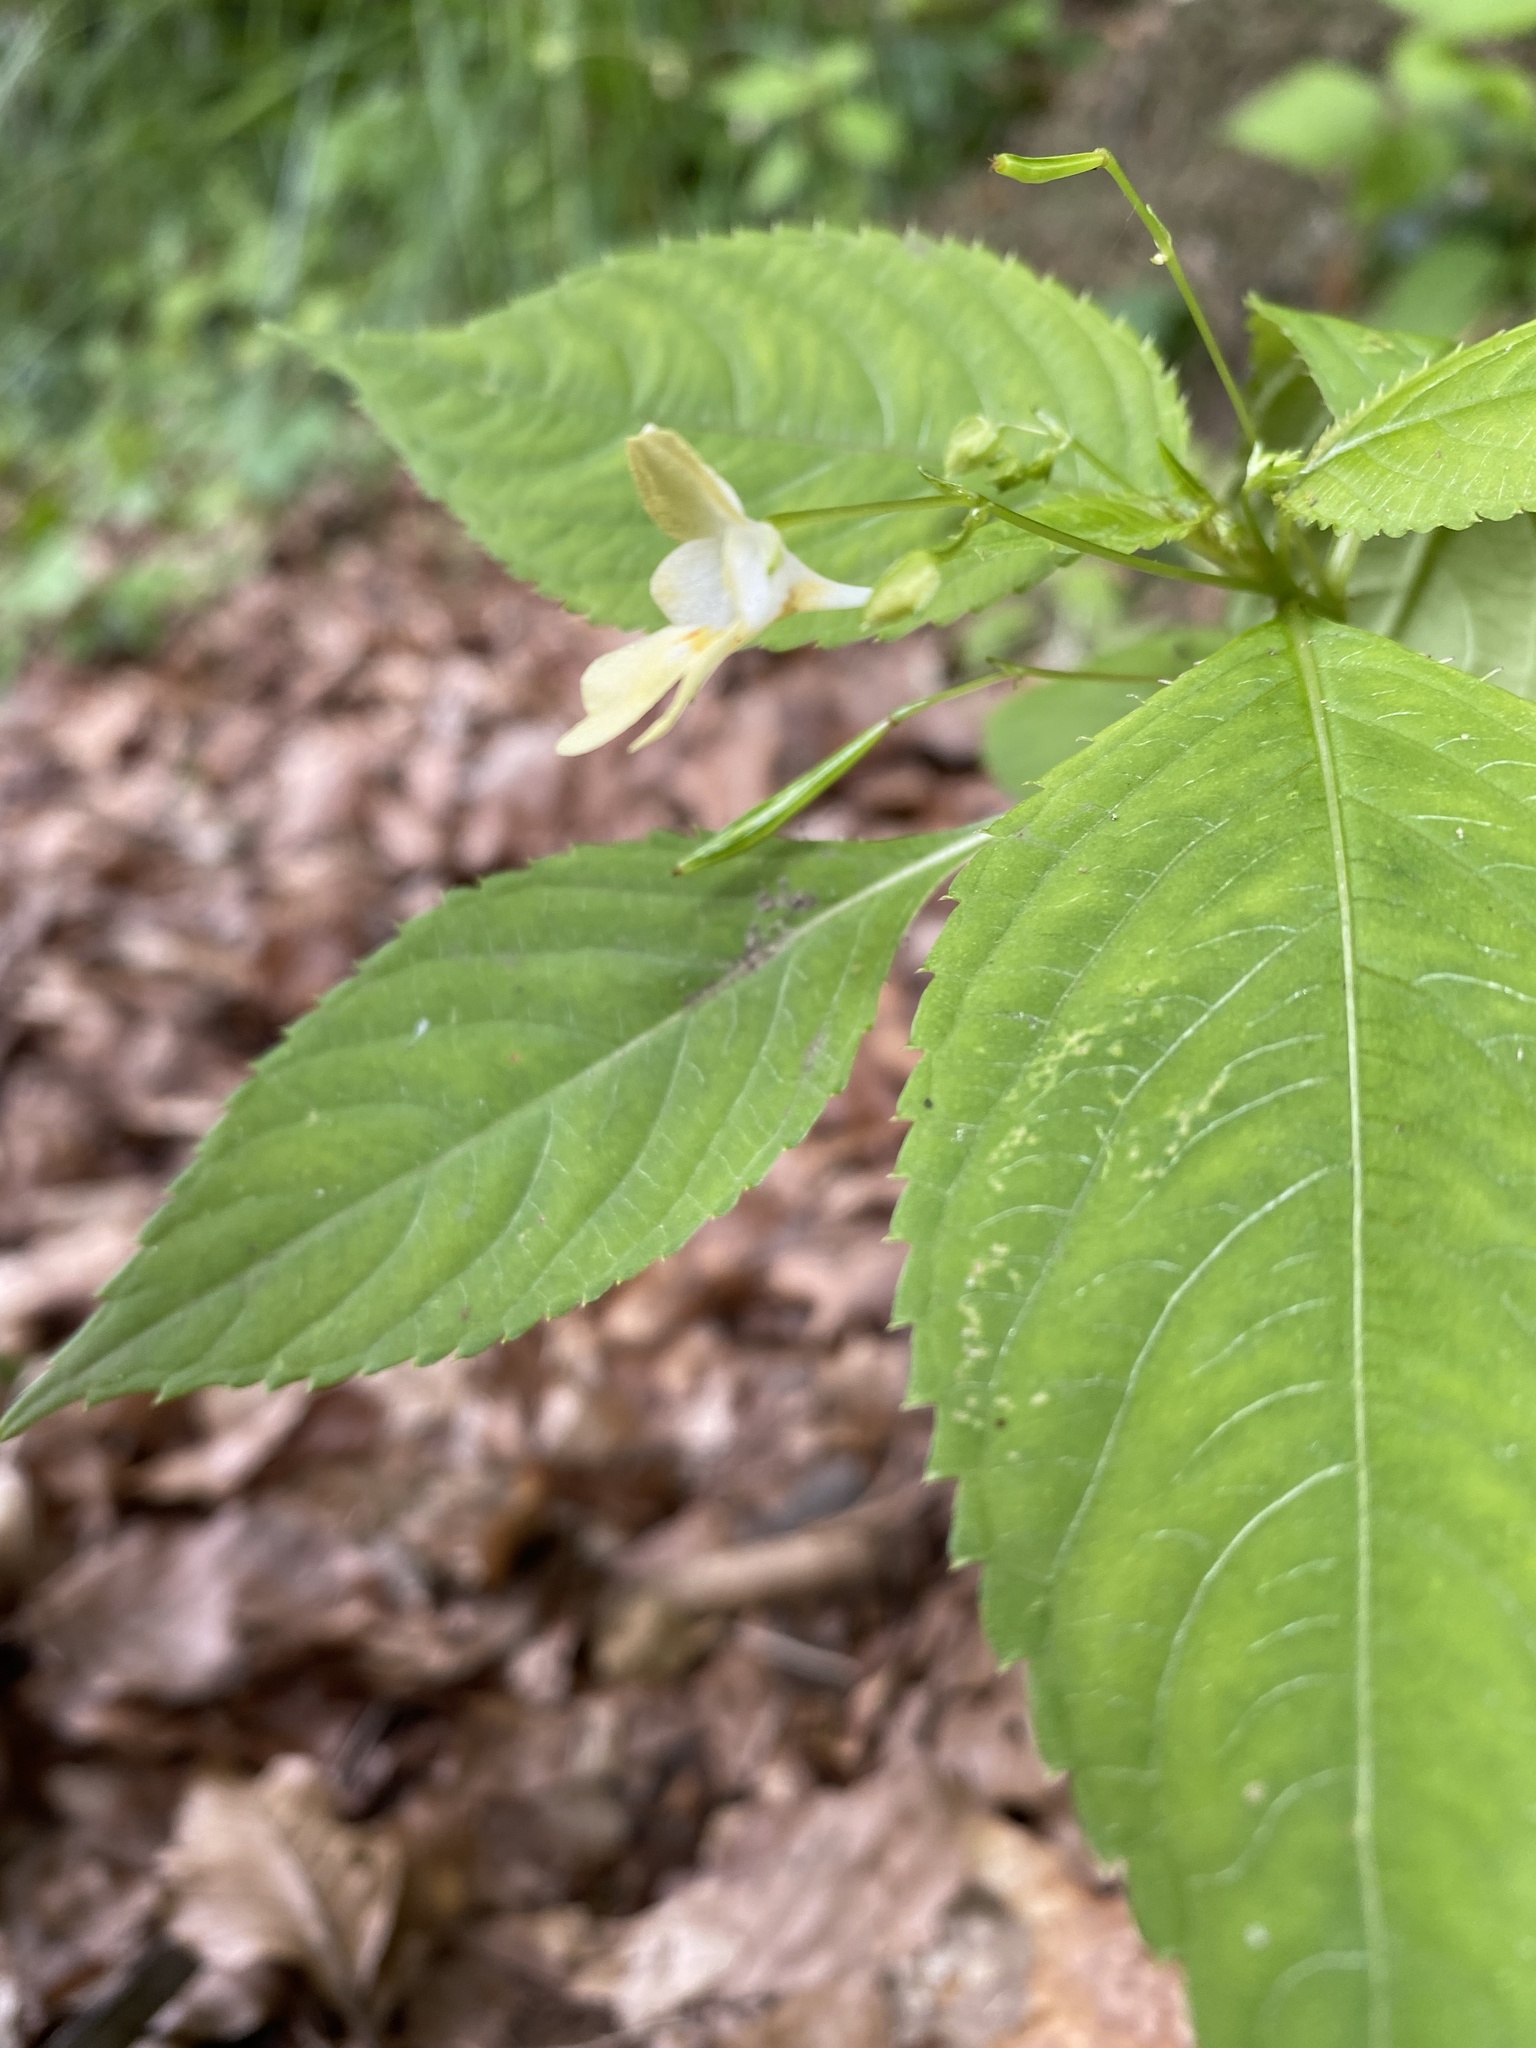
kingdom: Plantae
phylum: Tracheophyta
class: Magnoliopsida
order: Ericales
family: Balsaminaceae
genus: Impatiens
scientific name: Impatiens parviflora
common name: Small balsam
